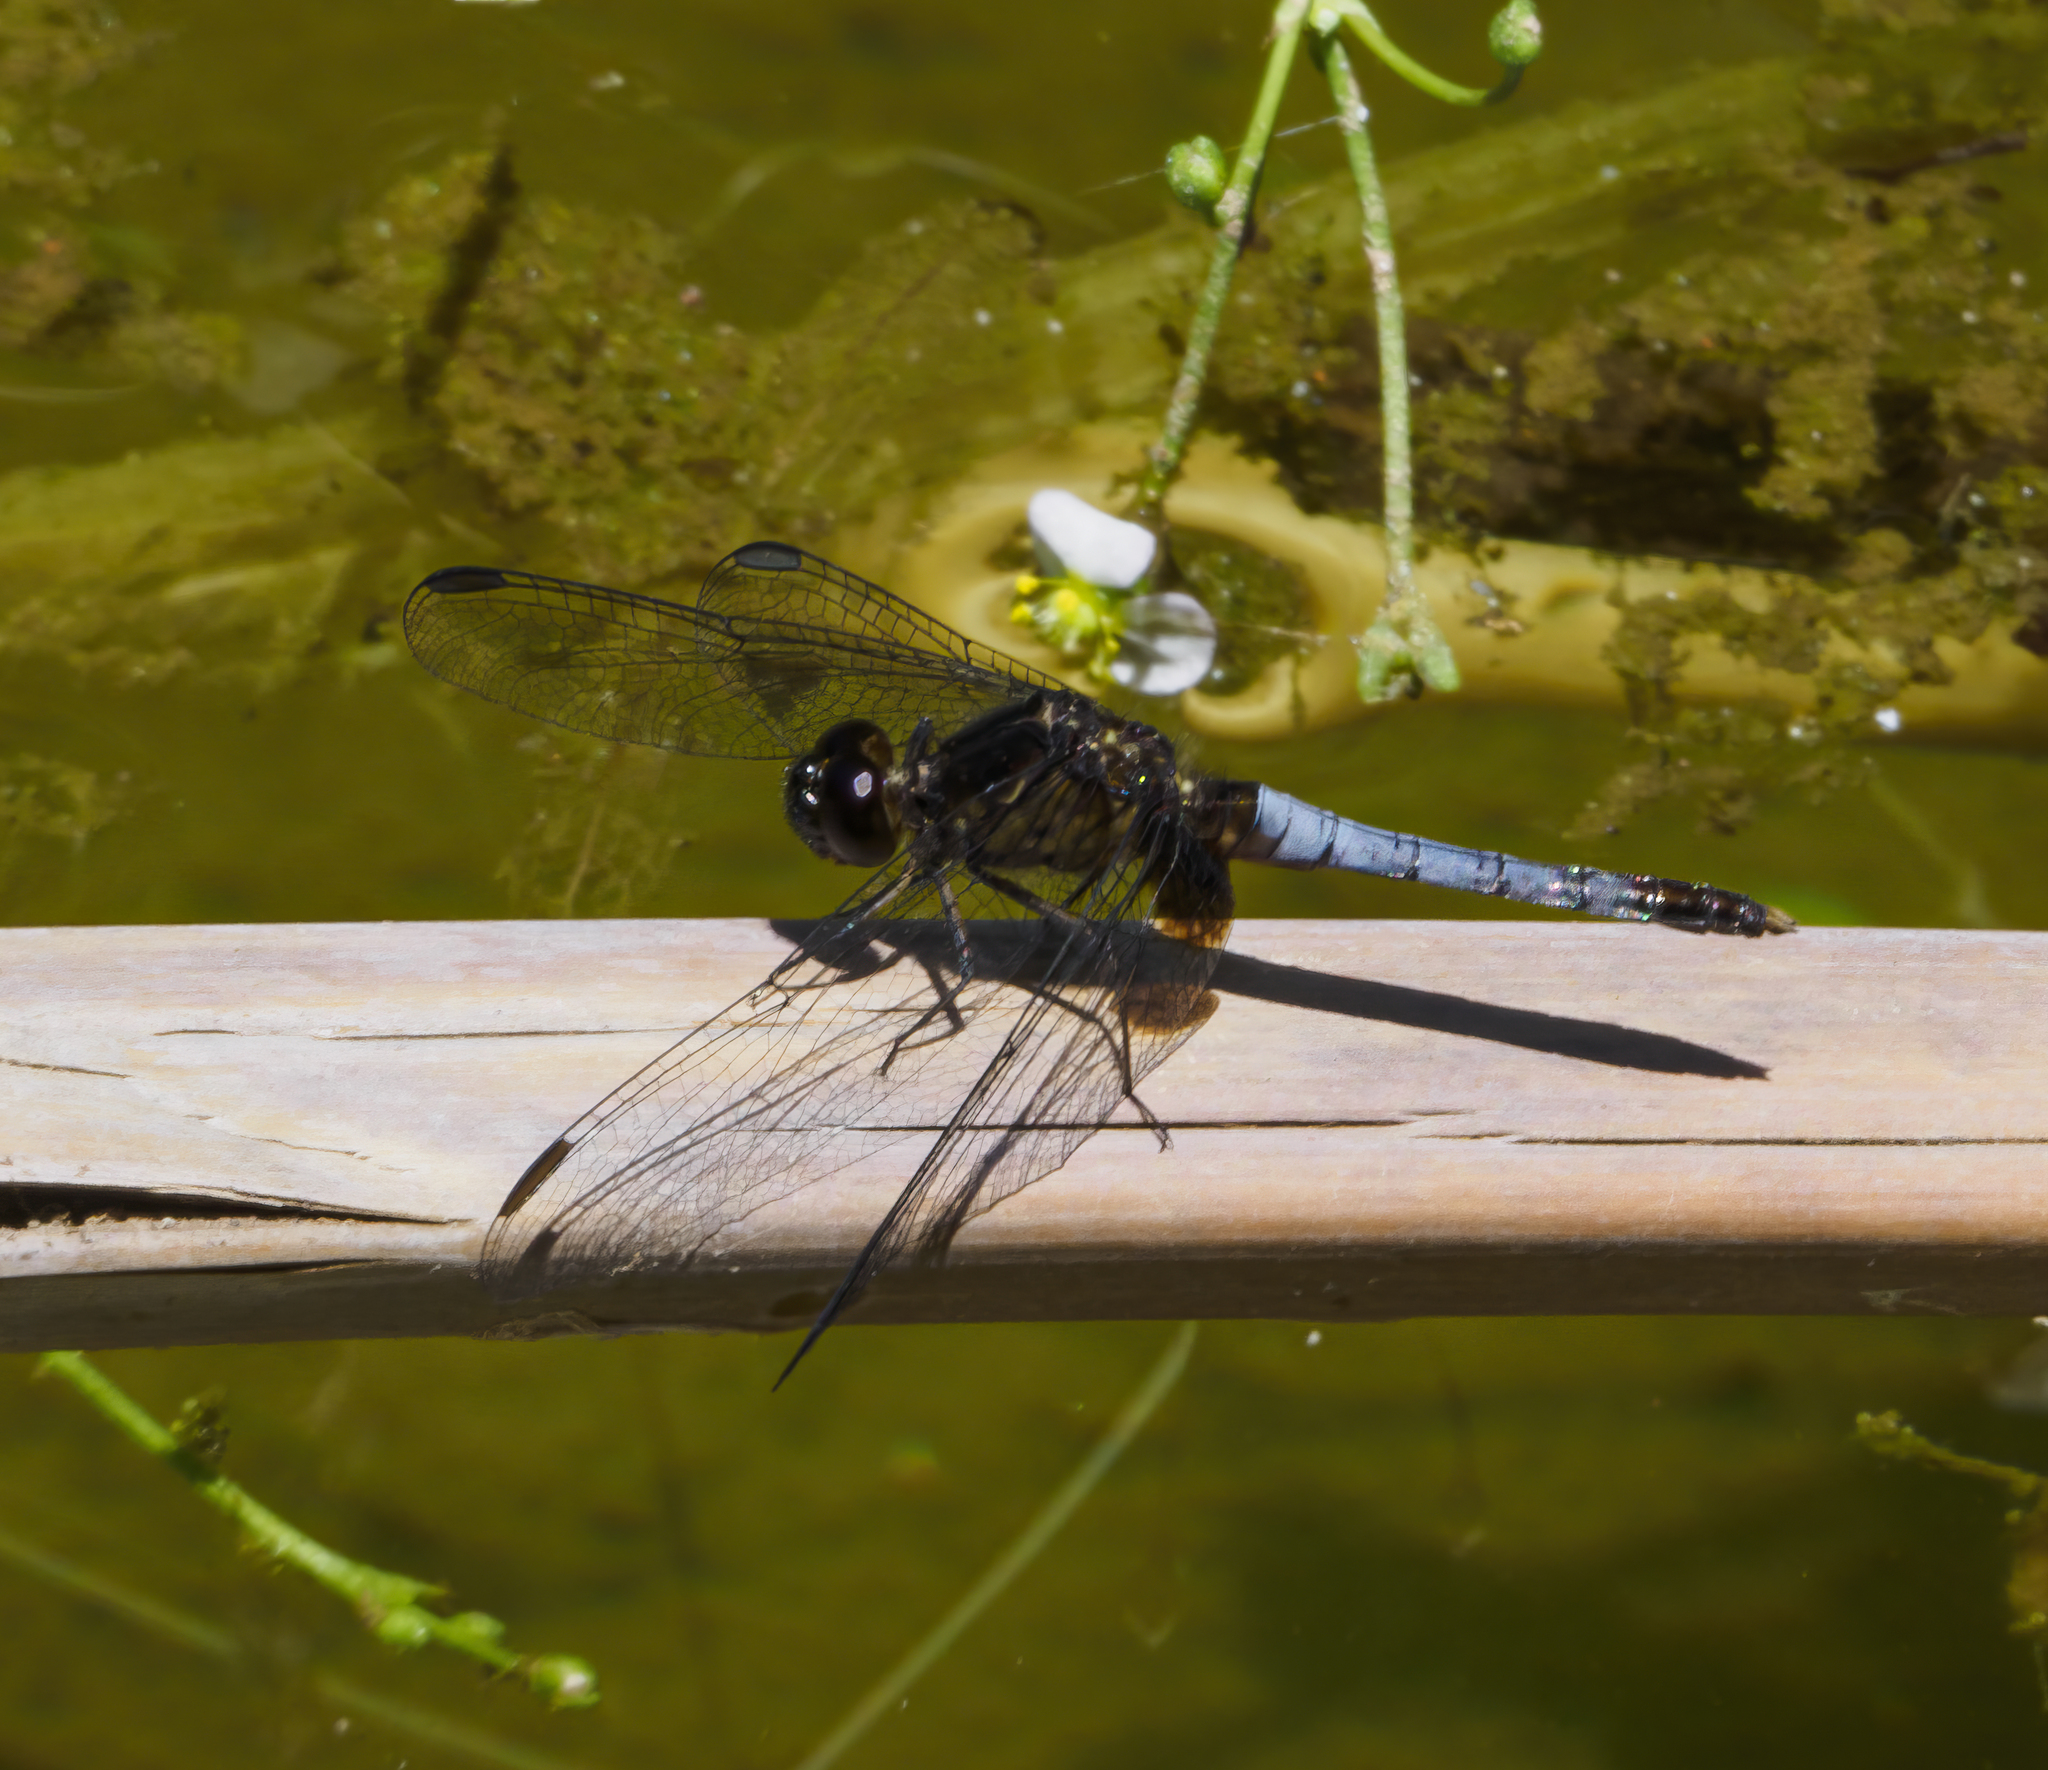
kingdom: Animalia
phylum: Arthropoda
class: Insecta
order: Odonata
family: Libellulidae
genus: Erythrodiplax
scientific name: Erythrodiplax media
